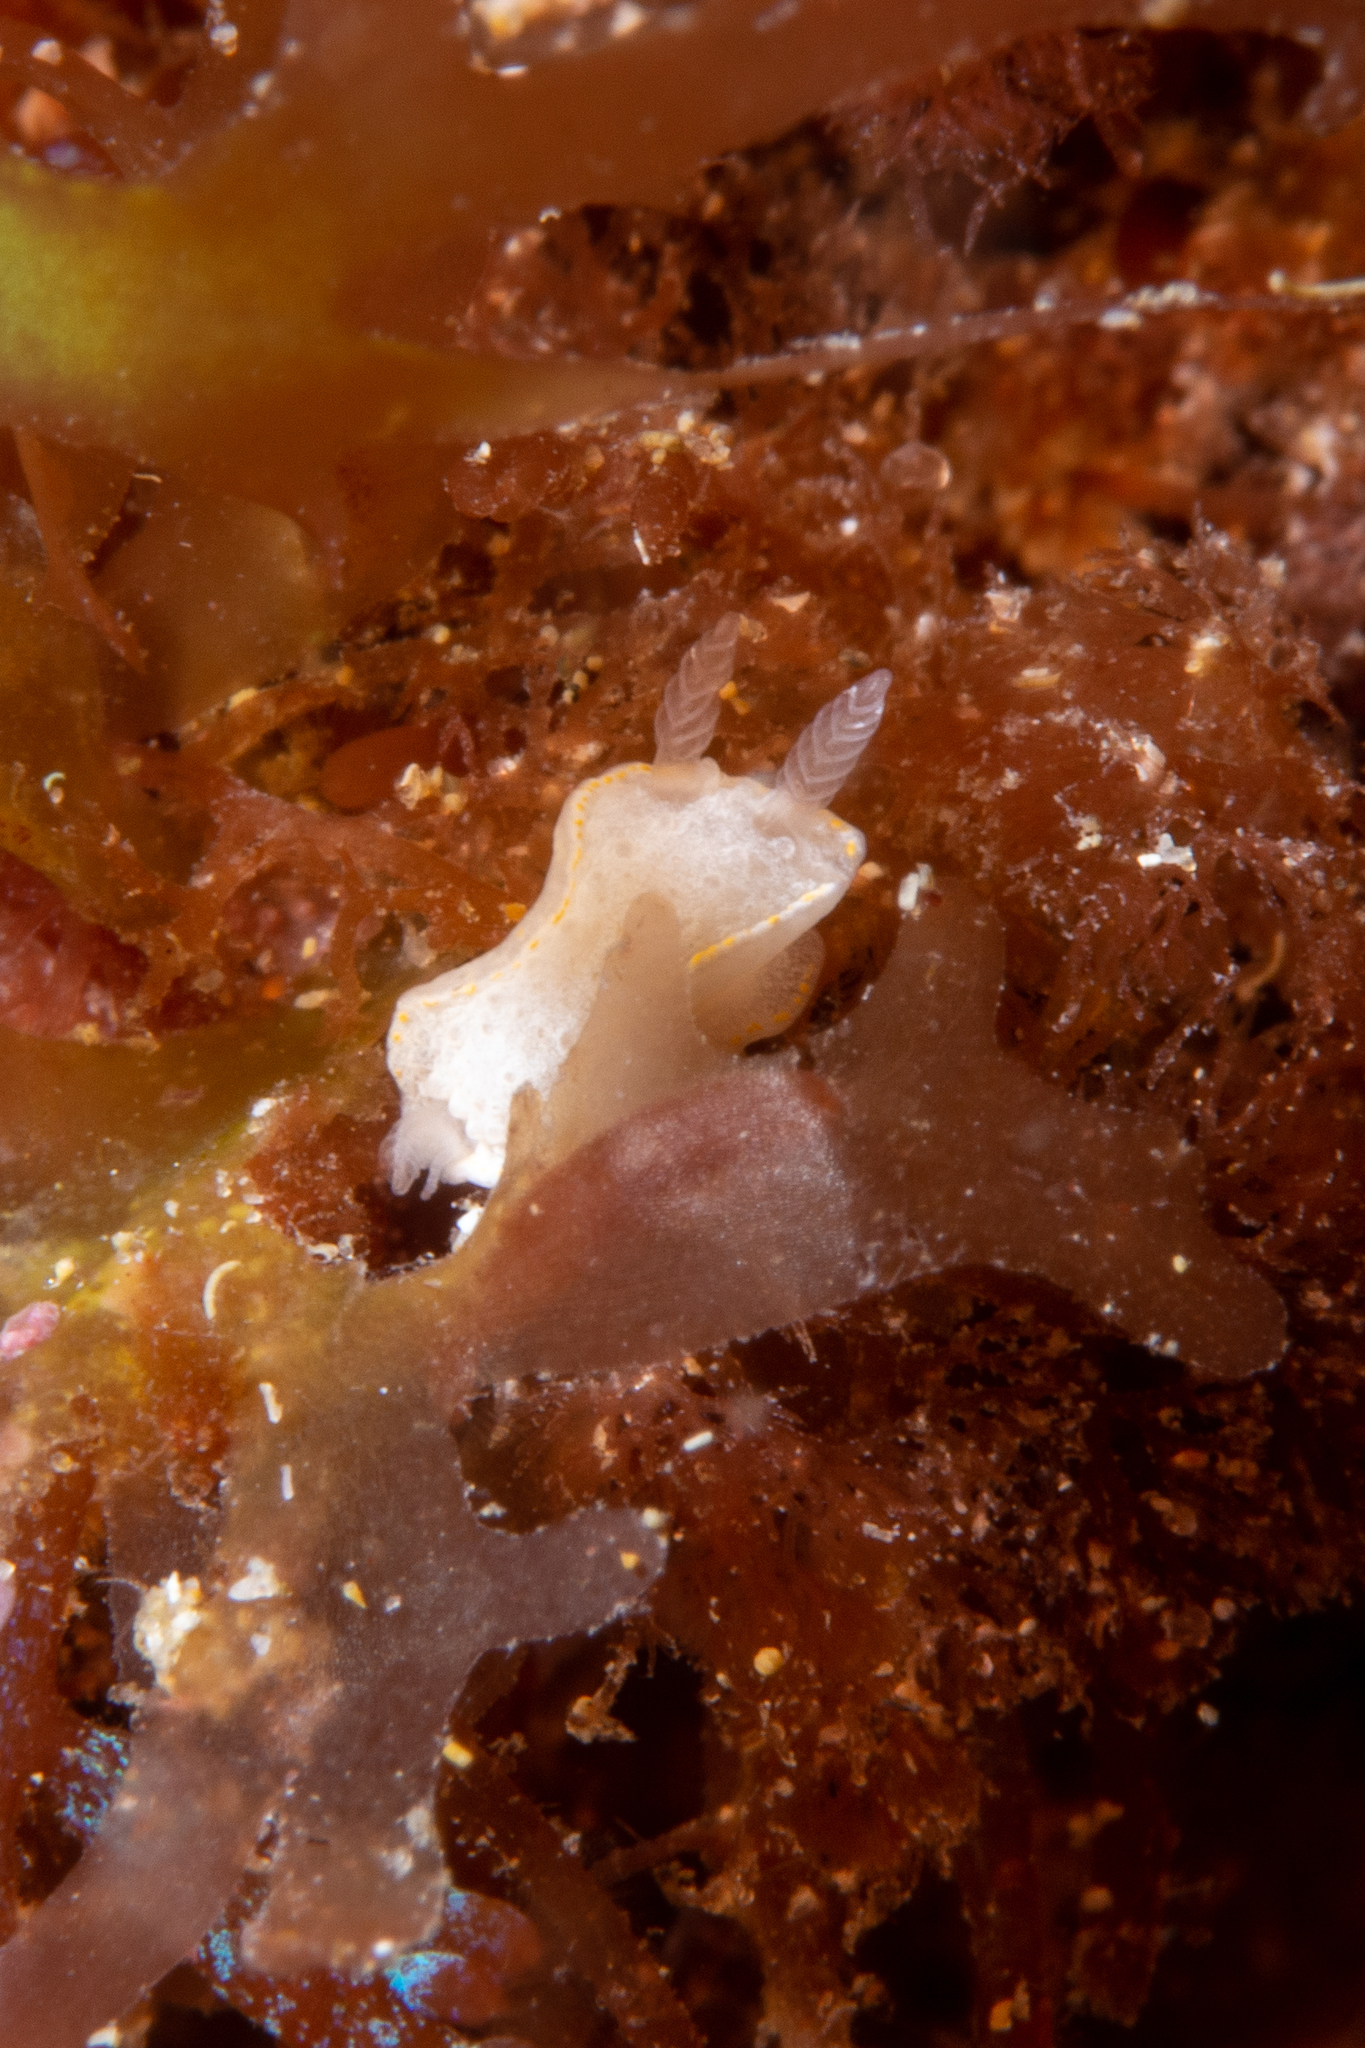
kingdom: Animalia
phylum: Mollusca
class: Gastropoda
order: Nudibranchia
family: Chromodorididae
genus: Goniobranchus
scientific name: Goniobranchus epicurius
